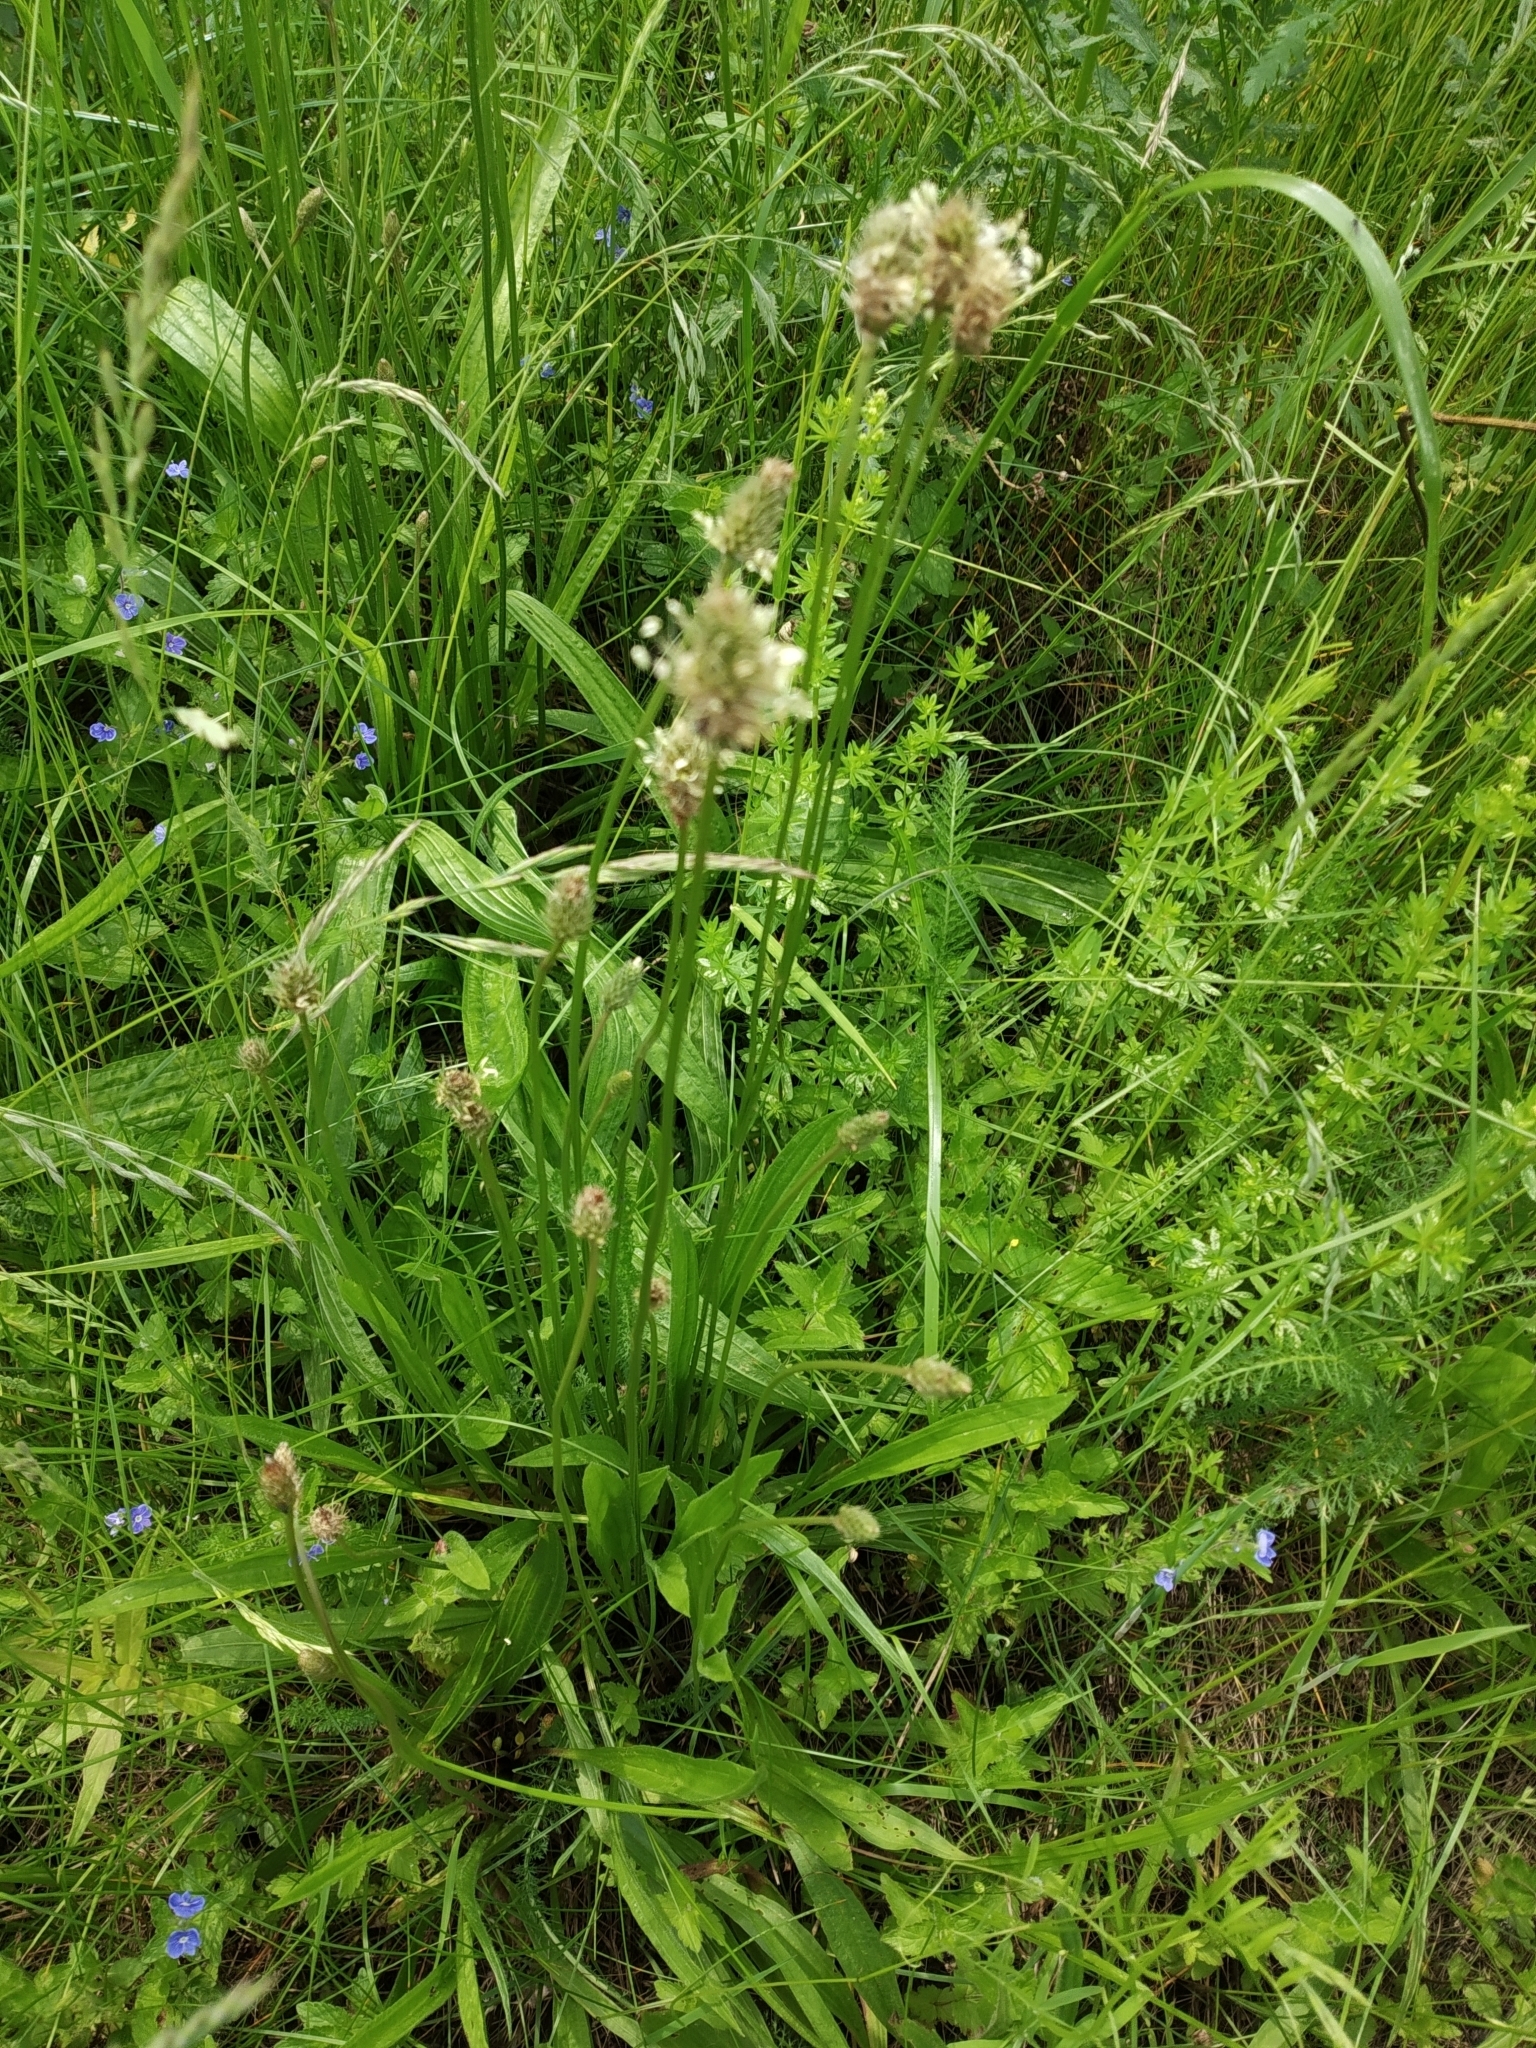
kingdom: Plantae
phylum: Tracheophyta
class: Magnoliopsida
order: Lamiales
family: Plantaginaceae
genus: Plantago
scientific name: Plantago lanceolata
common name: Ribwort plantain
